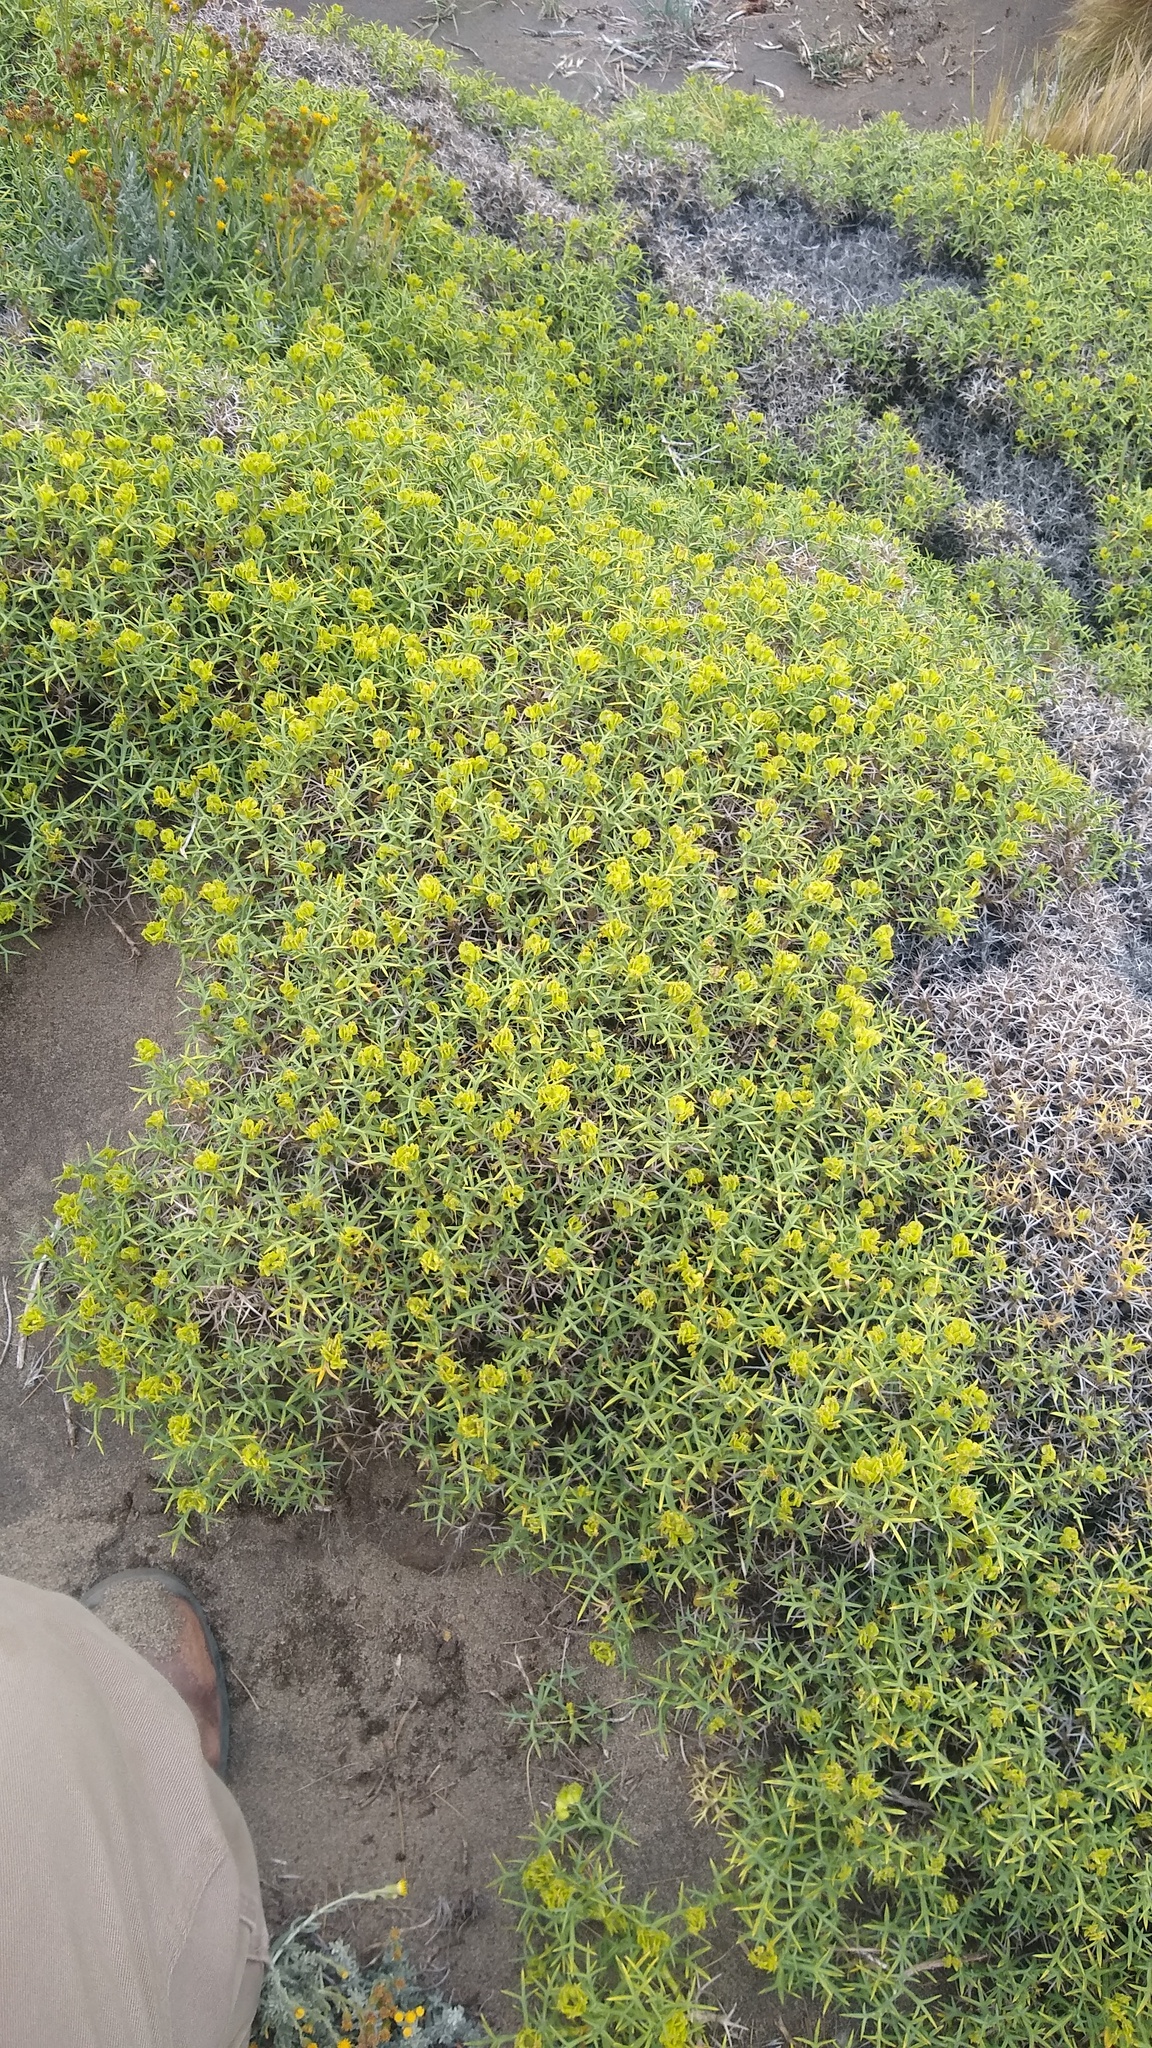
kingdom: Plantae
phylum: Tracheophyta
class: Magnoliopsida
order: Apiales
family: Apiaceae
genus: Azorella
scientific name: Azorella prolifera
